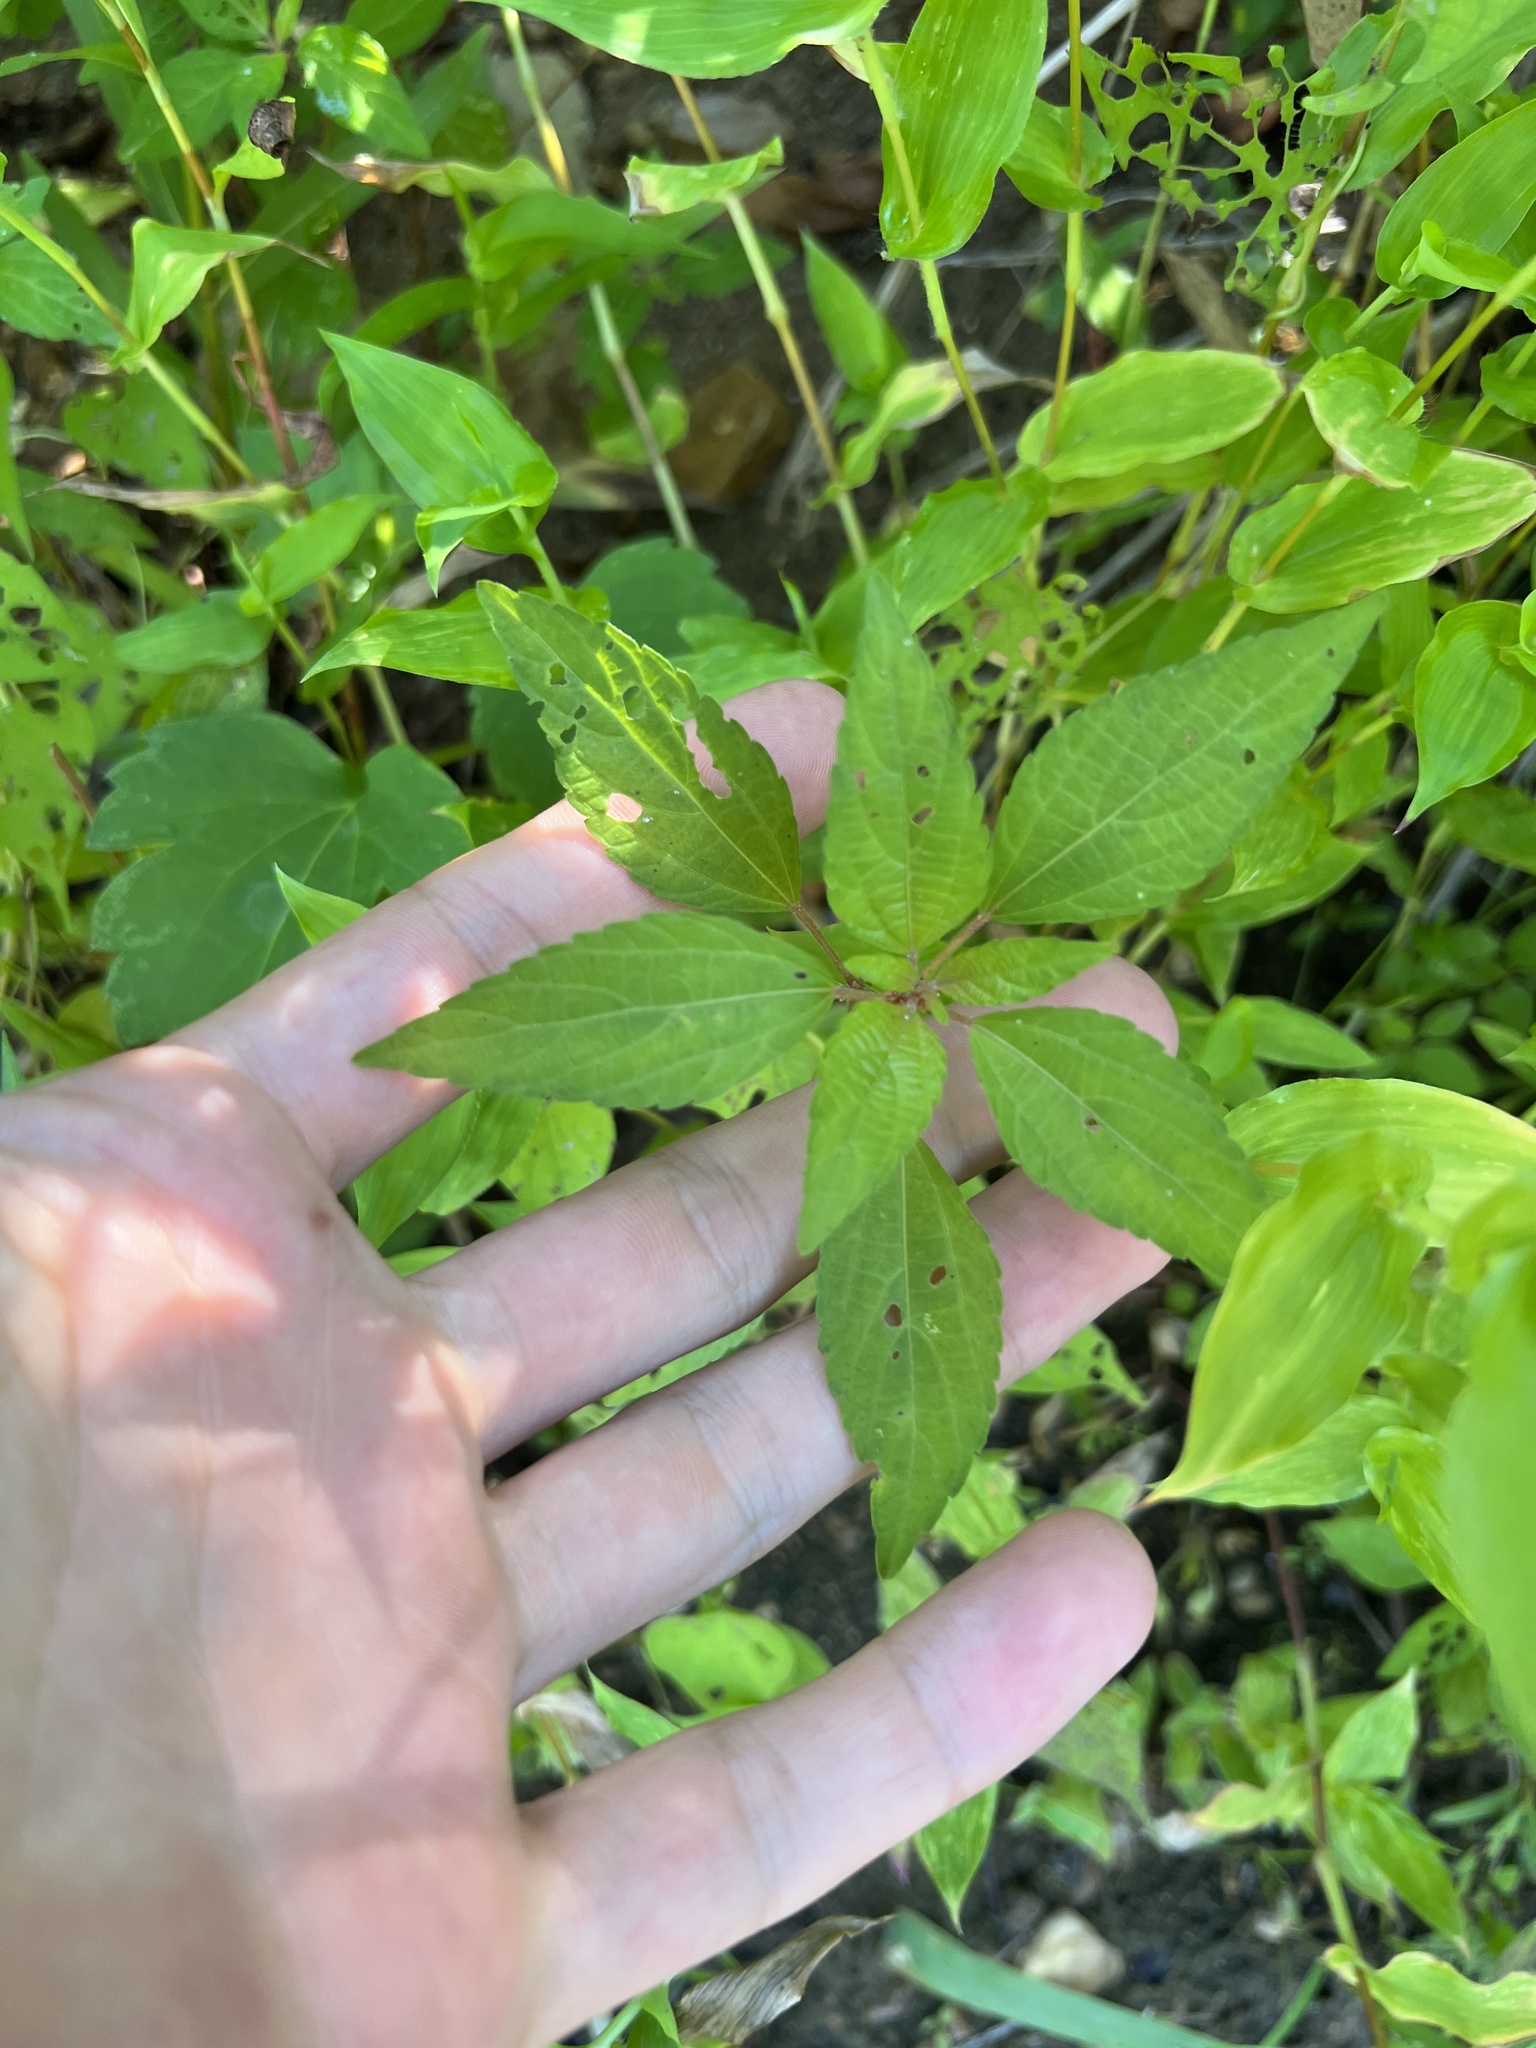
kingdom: Plantae
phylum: Tracheophyta
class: Magnoliopsida
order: Malpighiales
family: Euphorbiaceae
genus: Acalypha
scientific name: Acalypha virginica
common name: Virginia copperleaf
